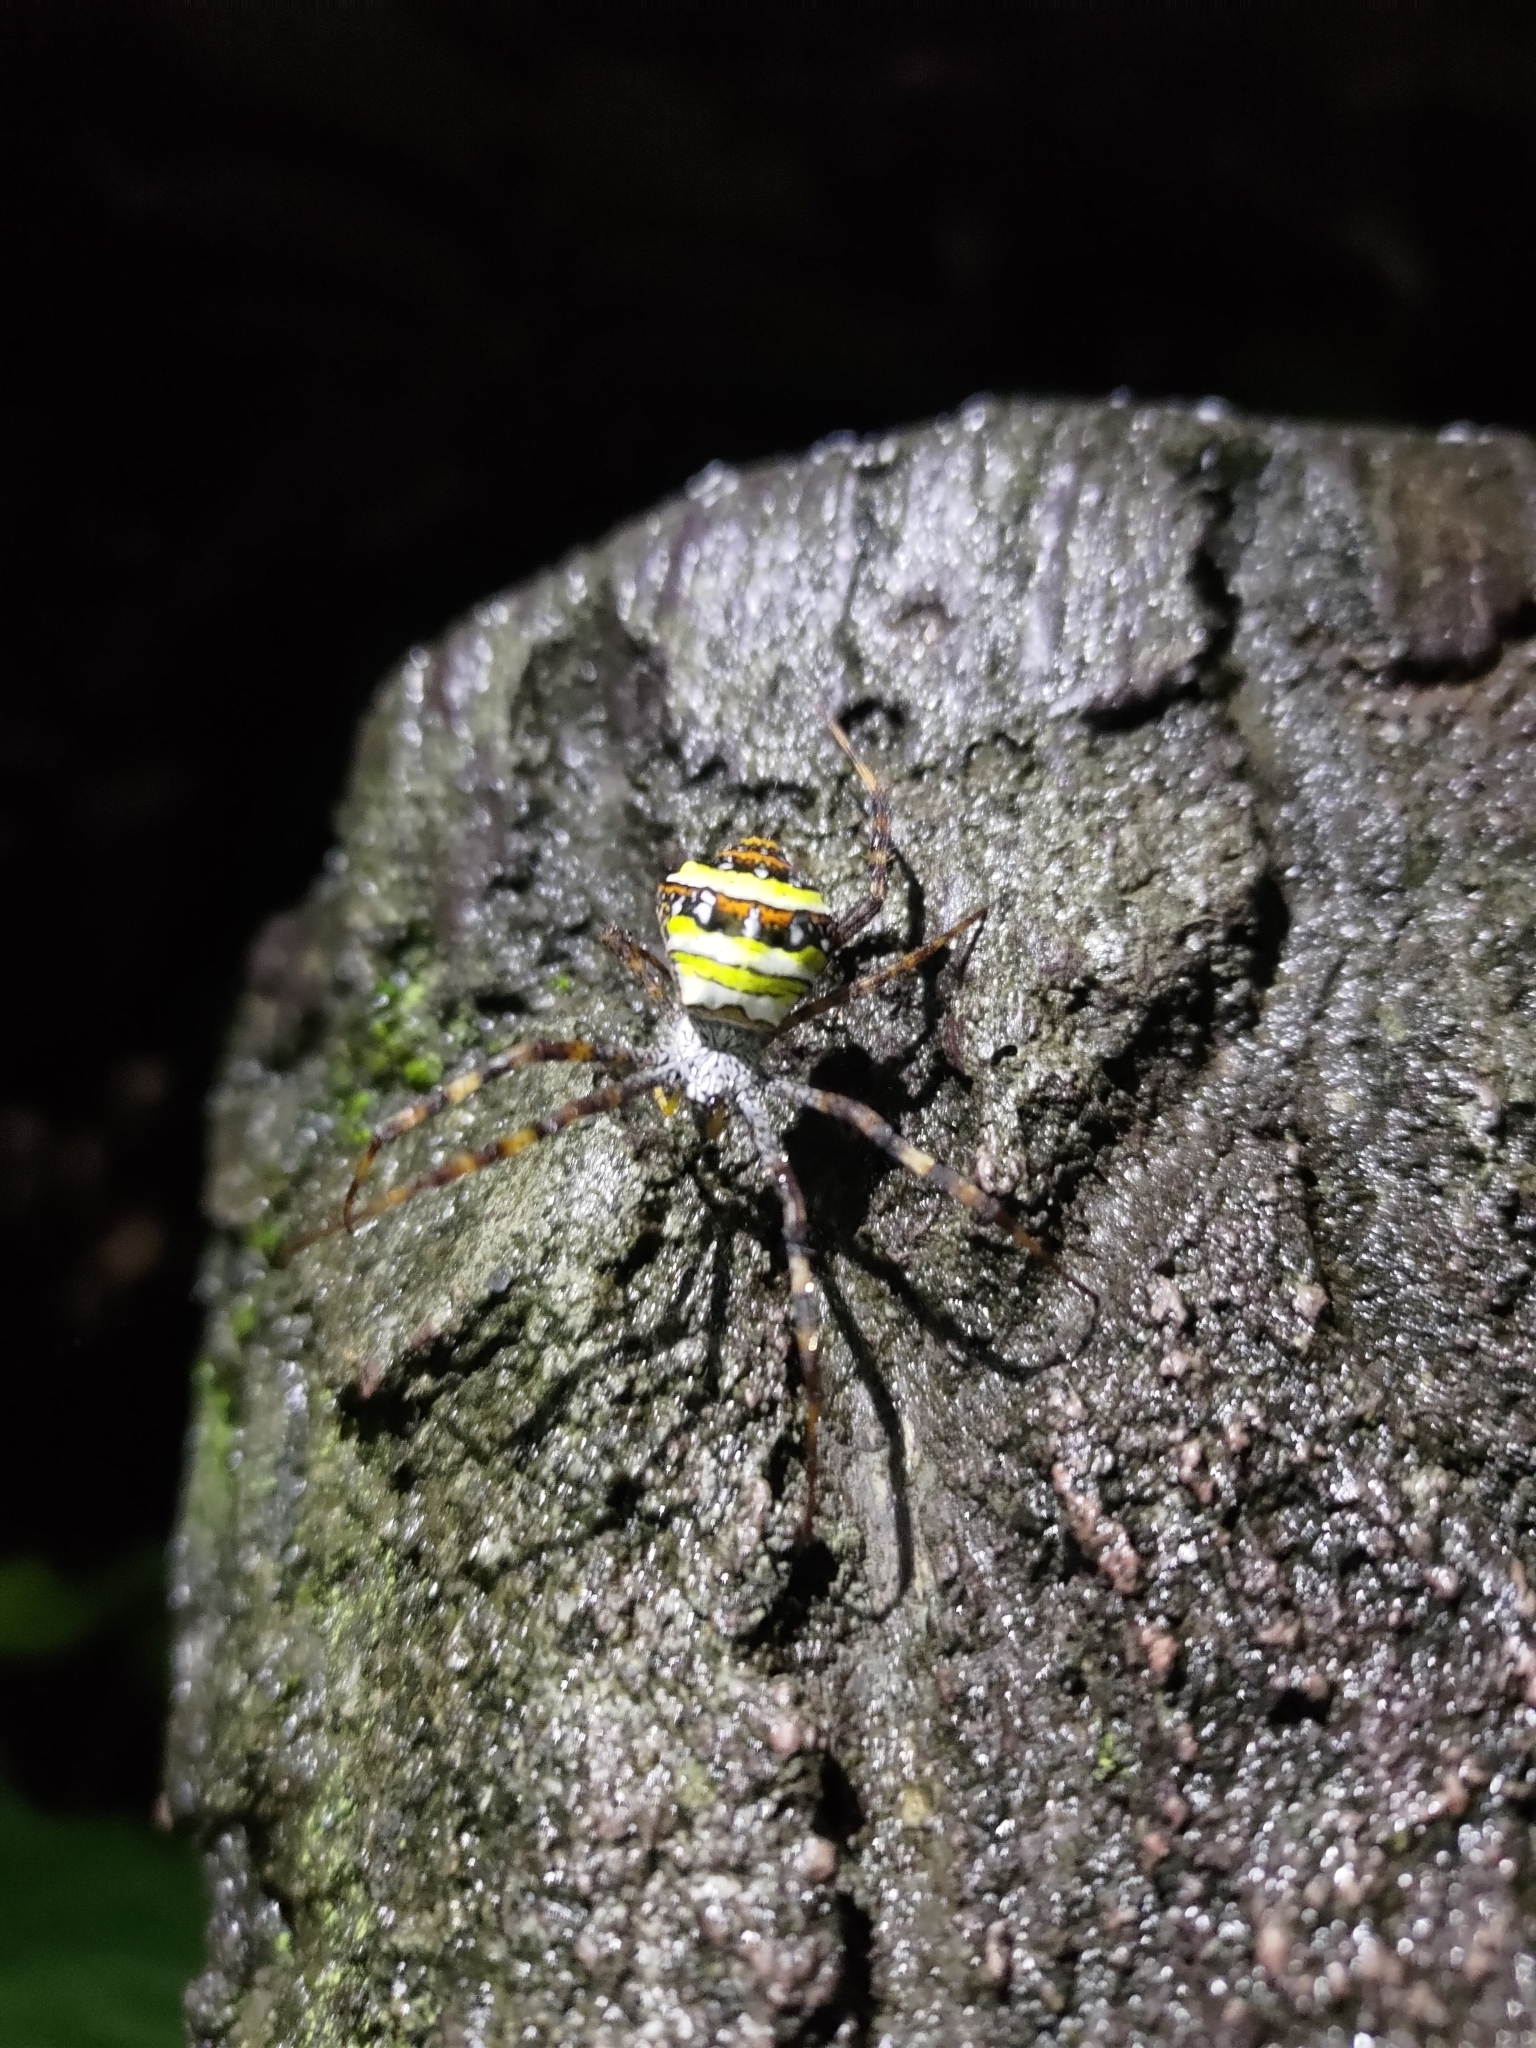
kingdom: Animalia
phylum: Arthropoda
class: Arachnida
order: Araneae
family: Araneidae
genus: Argiope
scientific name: Argiope aetheroides
